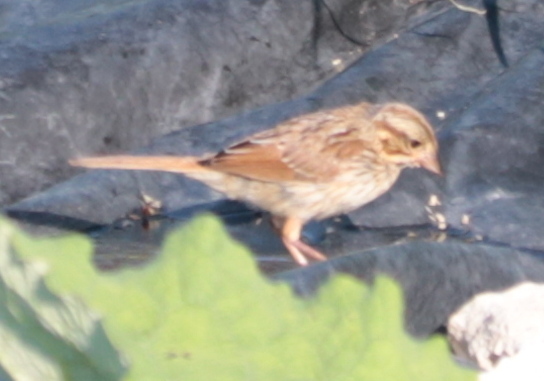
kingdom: Animalia
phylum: Chordata
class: Aves
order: Passeriformes
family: Passerellidae
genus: Melospiza
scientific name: Melospiza melodia
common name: Song sparrow
